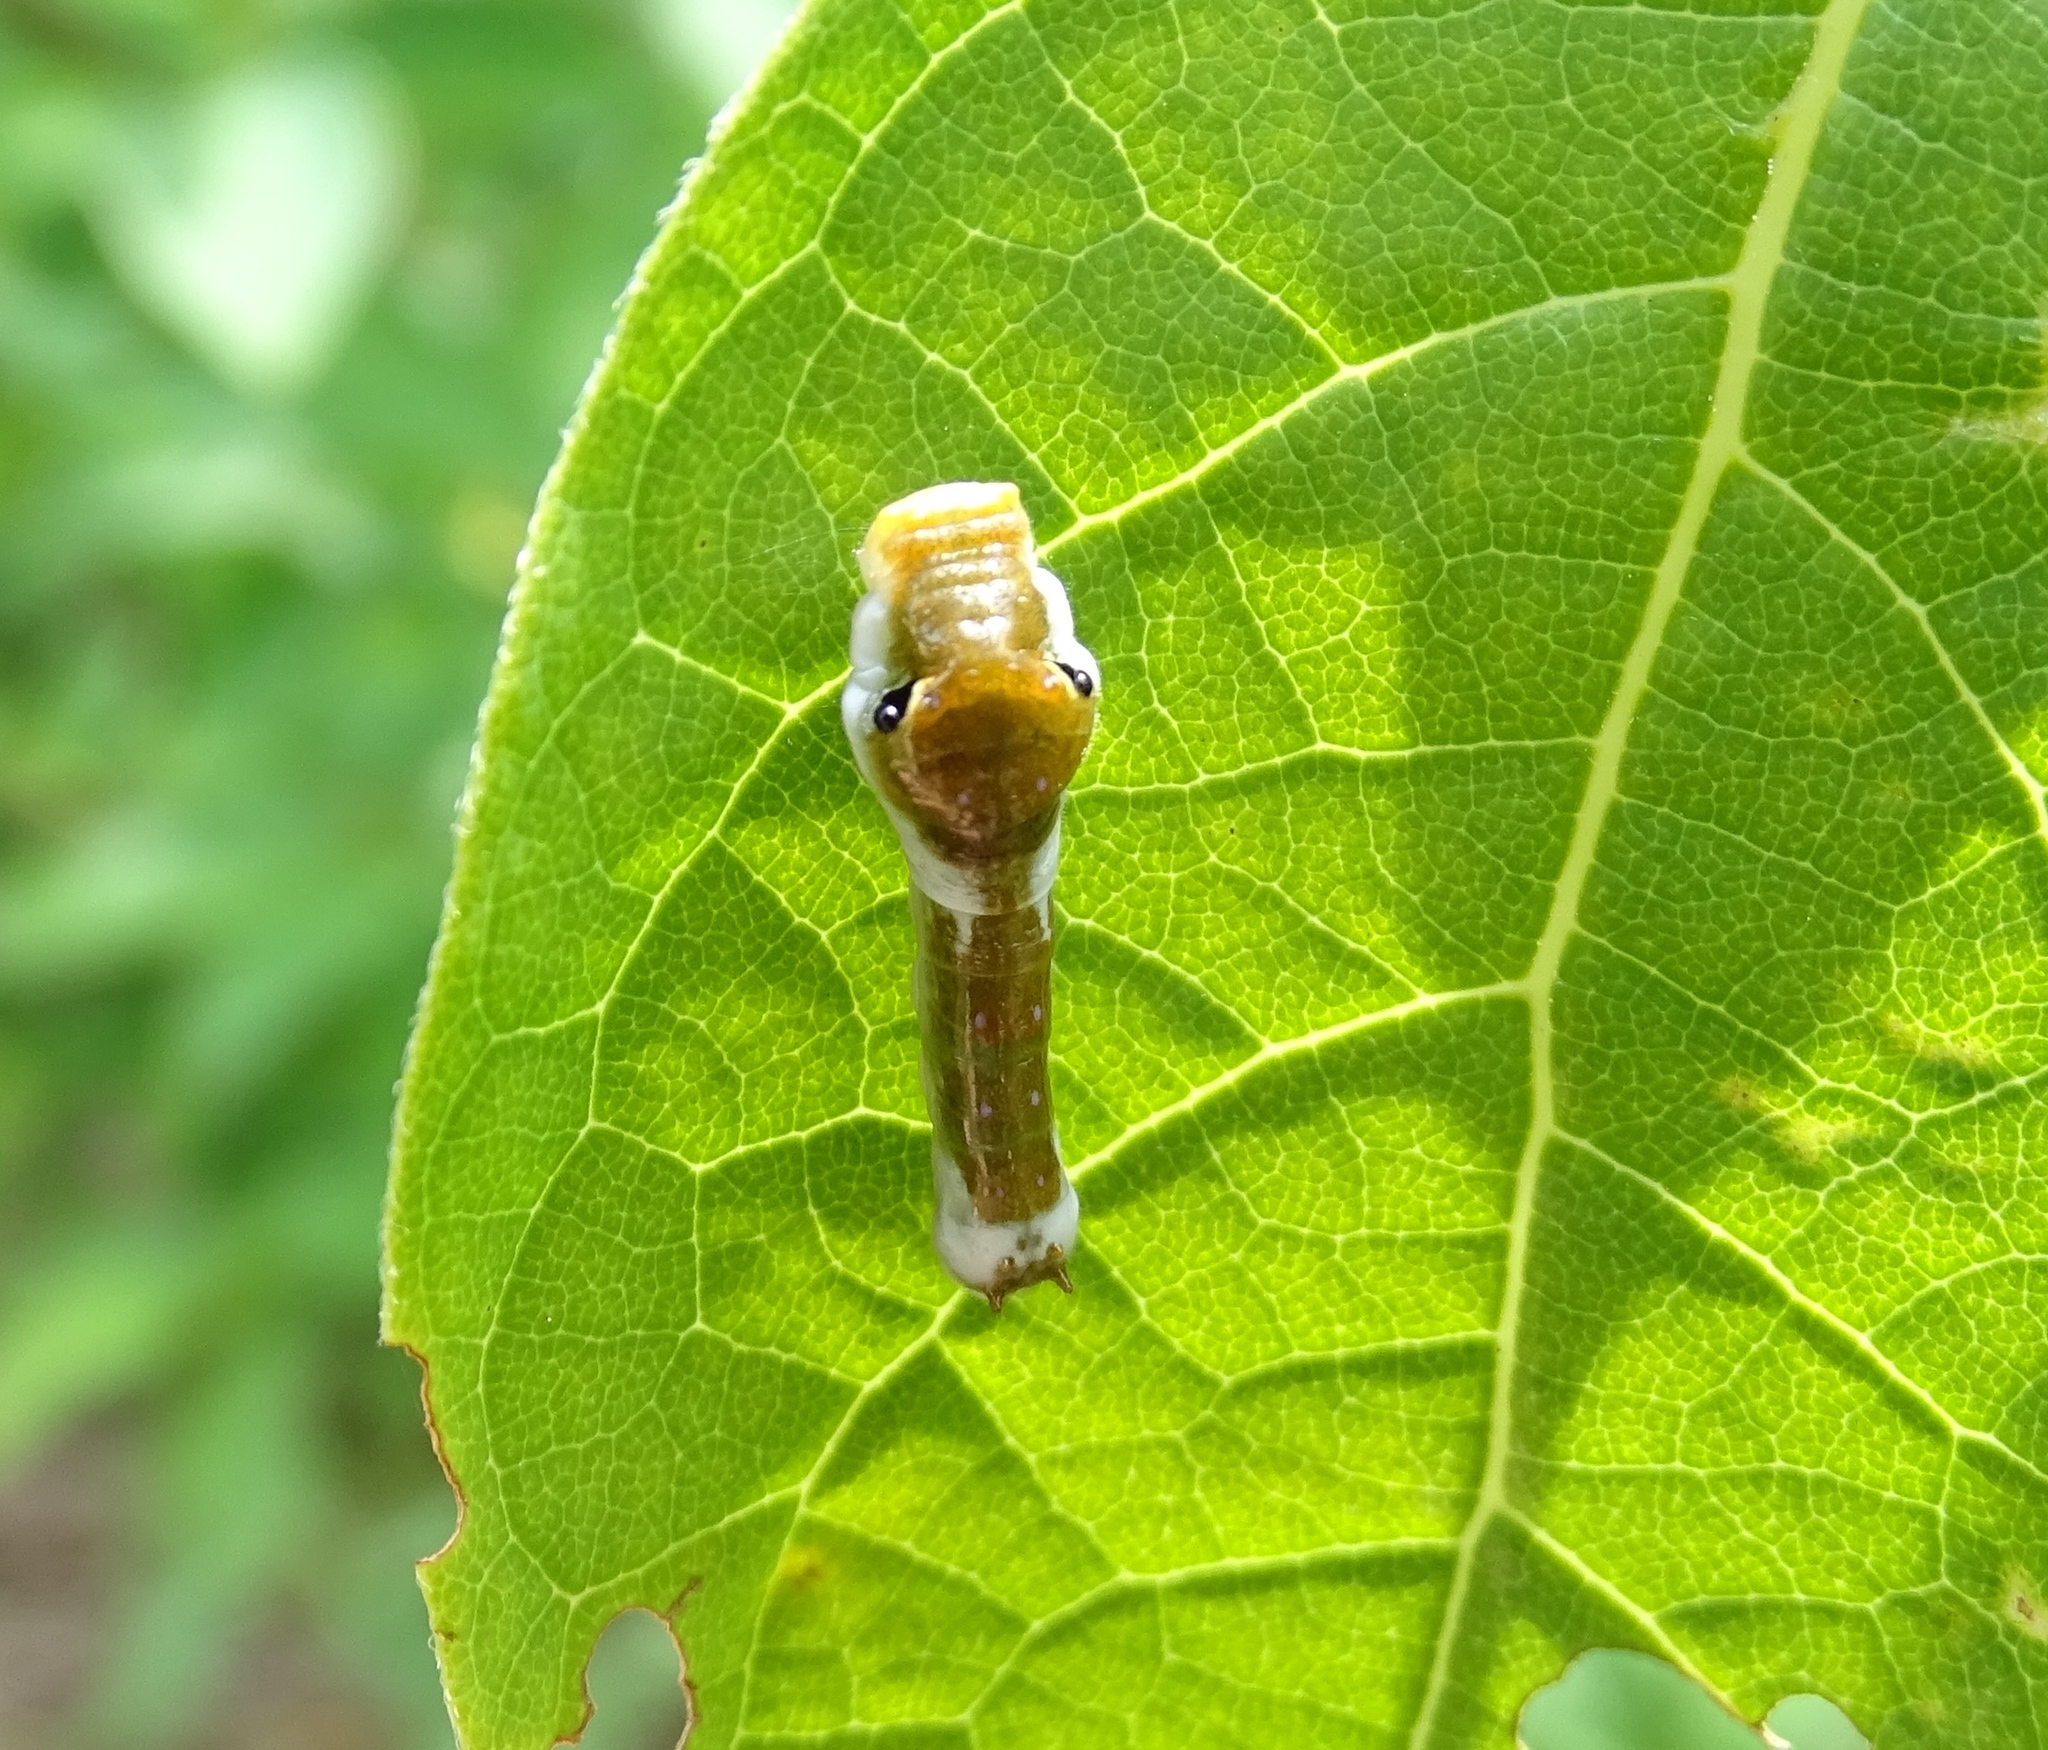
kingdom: Animalia
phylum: Arthropoda
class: Insecta
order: Lepidoptera
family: Papilionidae
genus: Papilio
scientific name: Papilio troilus
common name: Spicebush swallowtail
